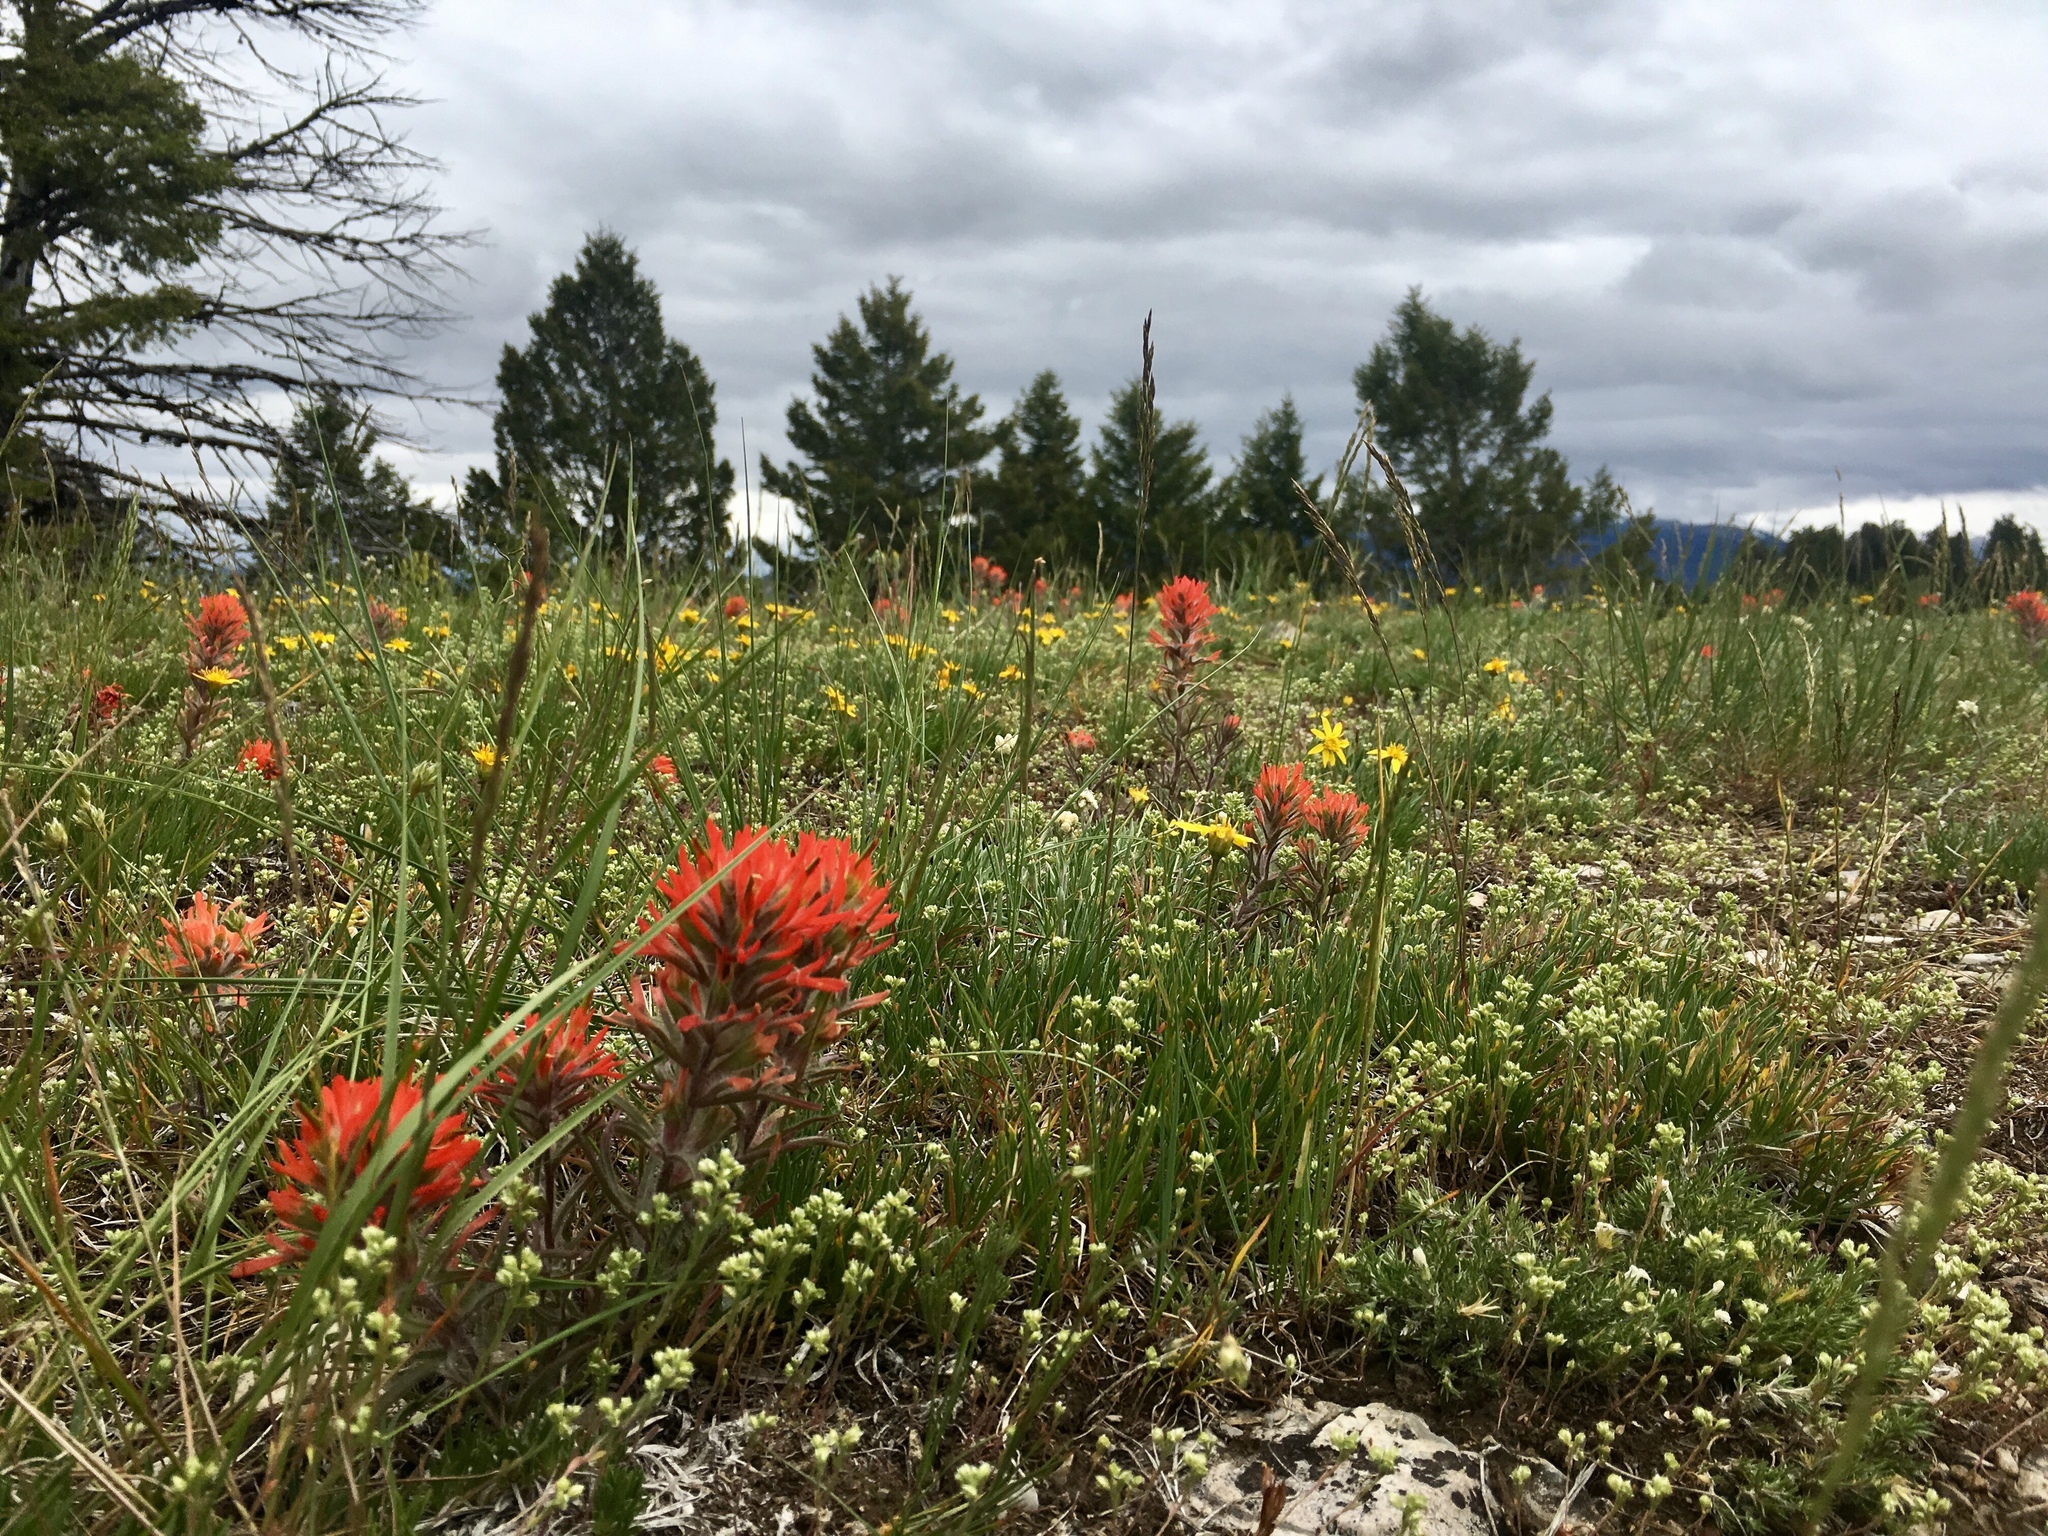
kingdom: Plantae
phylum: Tracheophyta
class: Magnoliopsida
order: Lamiales
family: Orobanchaceae
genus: Castilleja
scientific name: Castilleja chromosa
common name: Desert paintbrush
